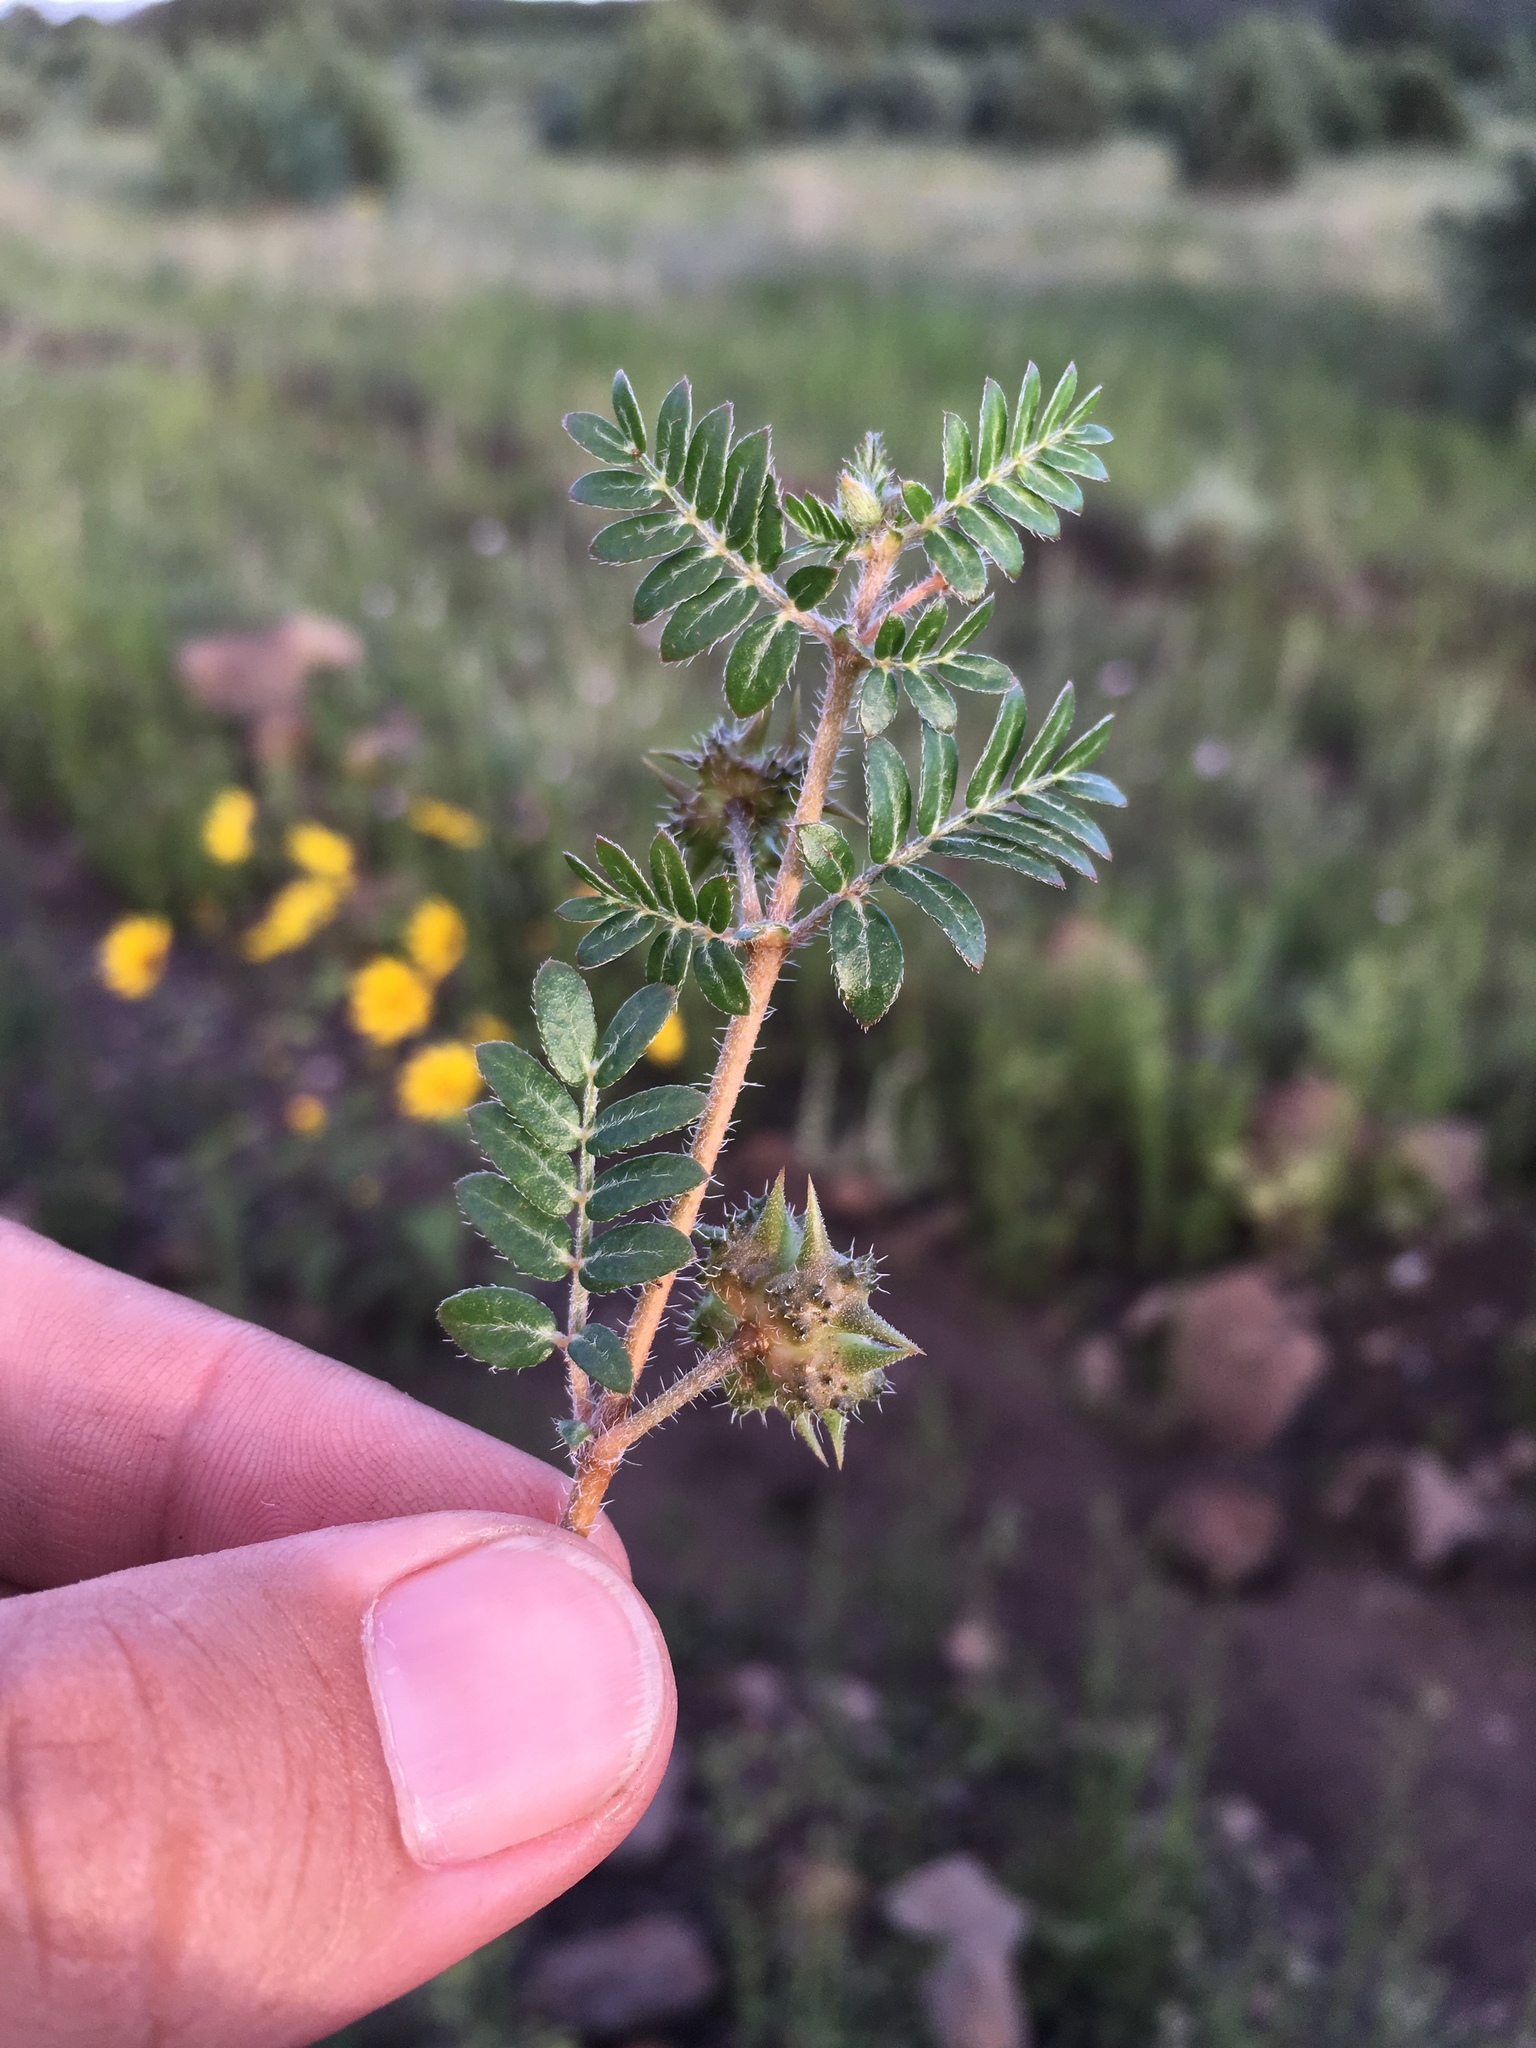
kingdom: Plantae
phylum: Tracheophyta
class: Magnoliopsida
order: Zygophyllales
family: Zygophyllaceae
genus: Tribulus
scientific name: Tribulus terrestris
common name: Puncturevine
